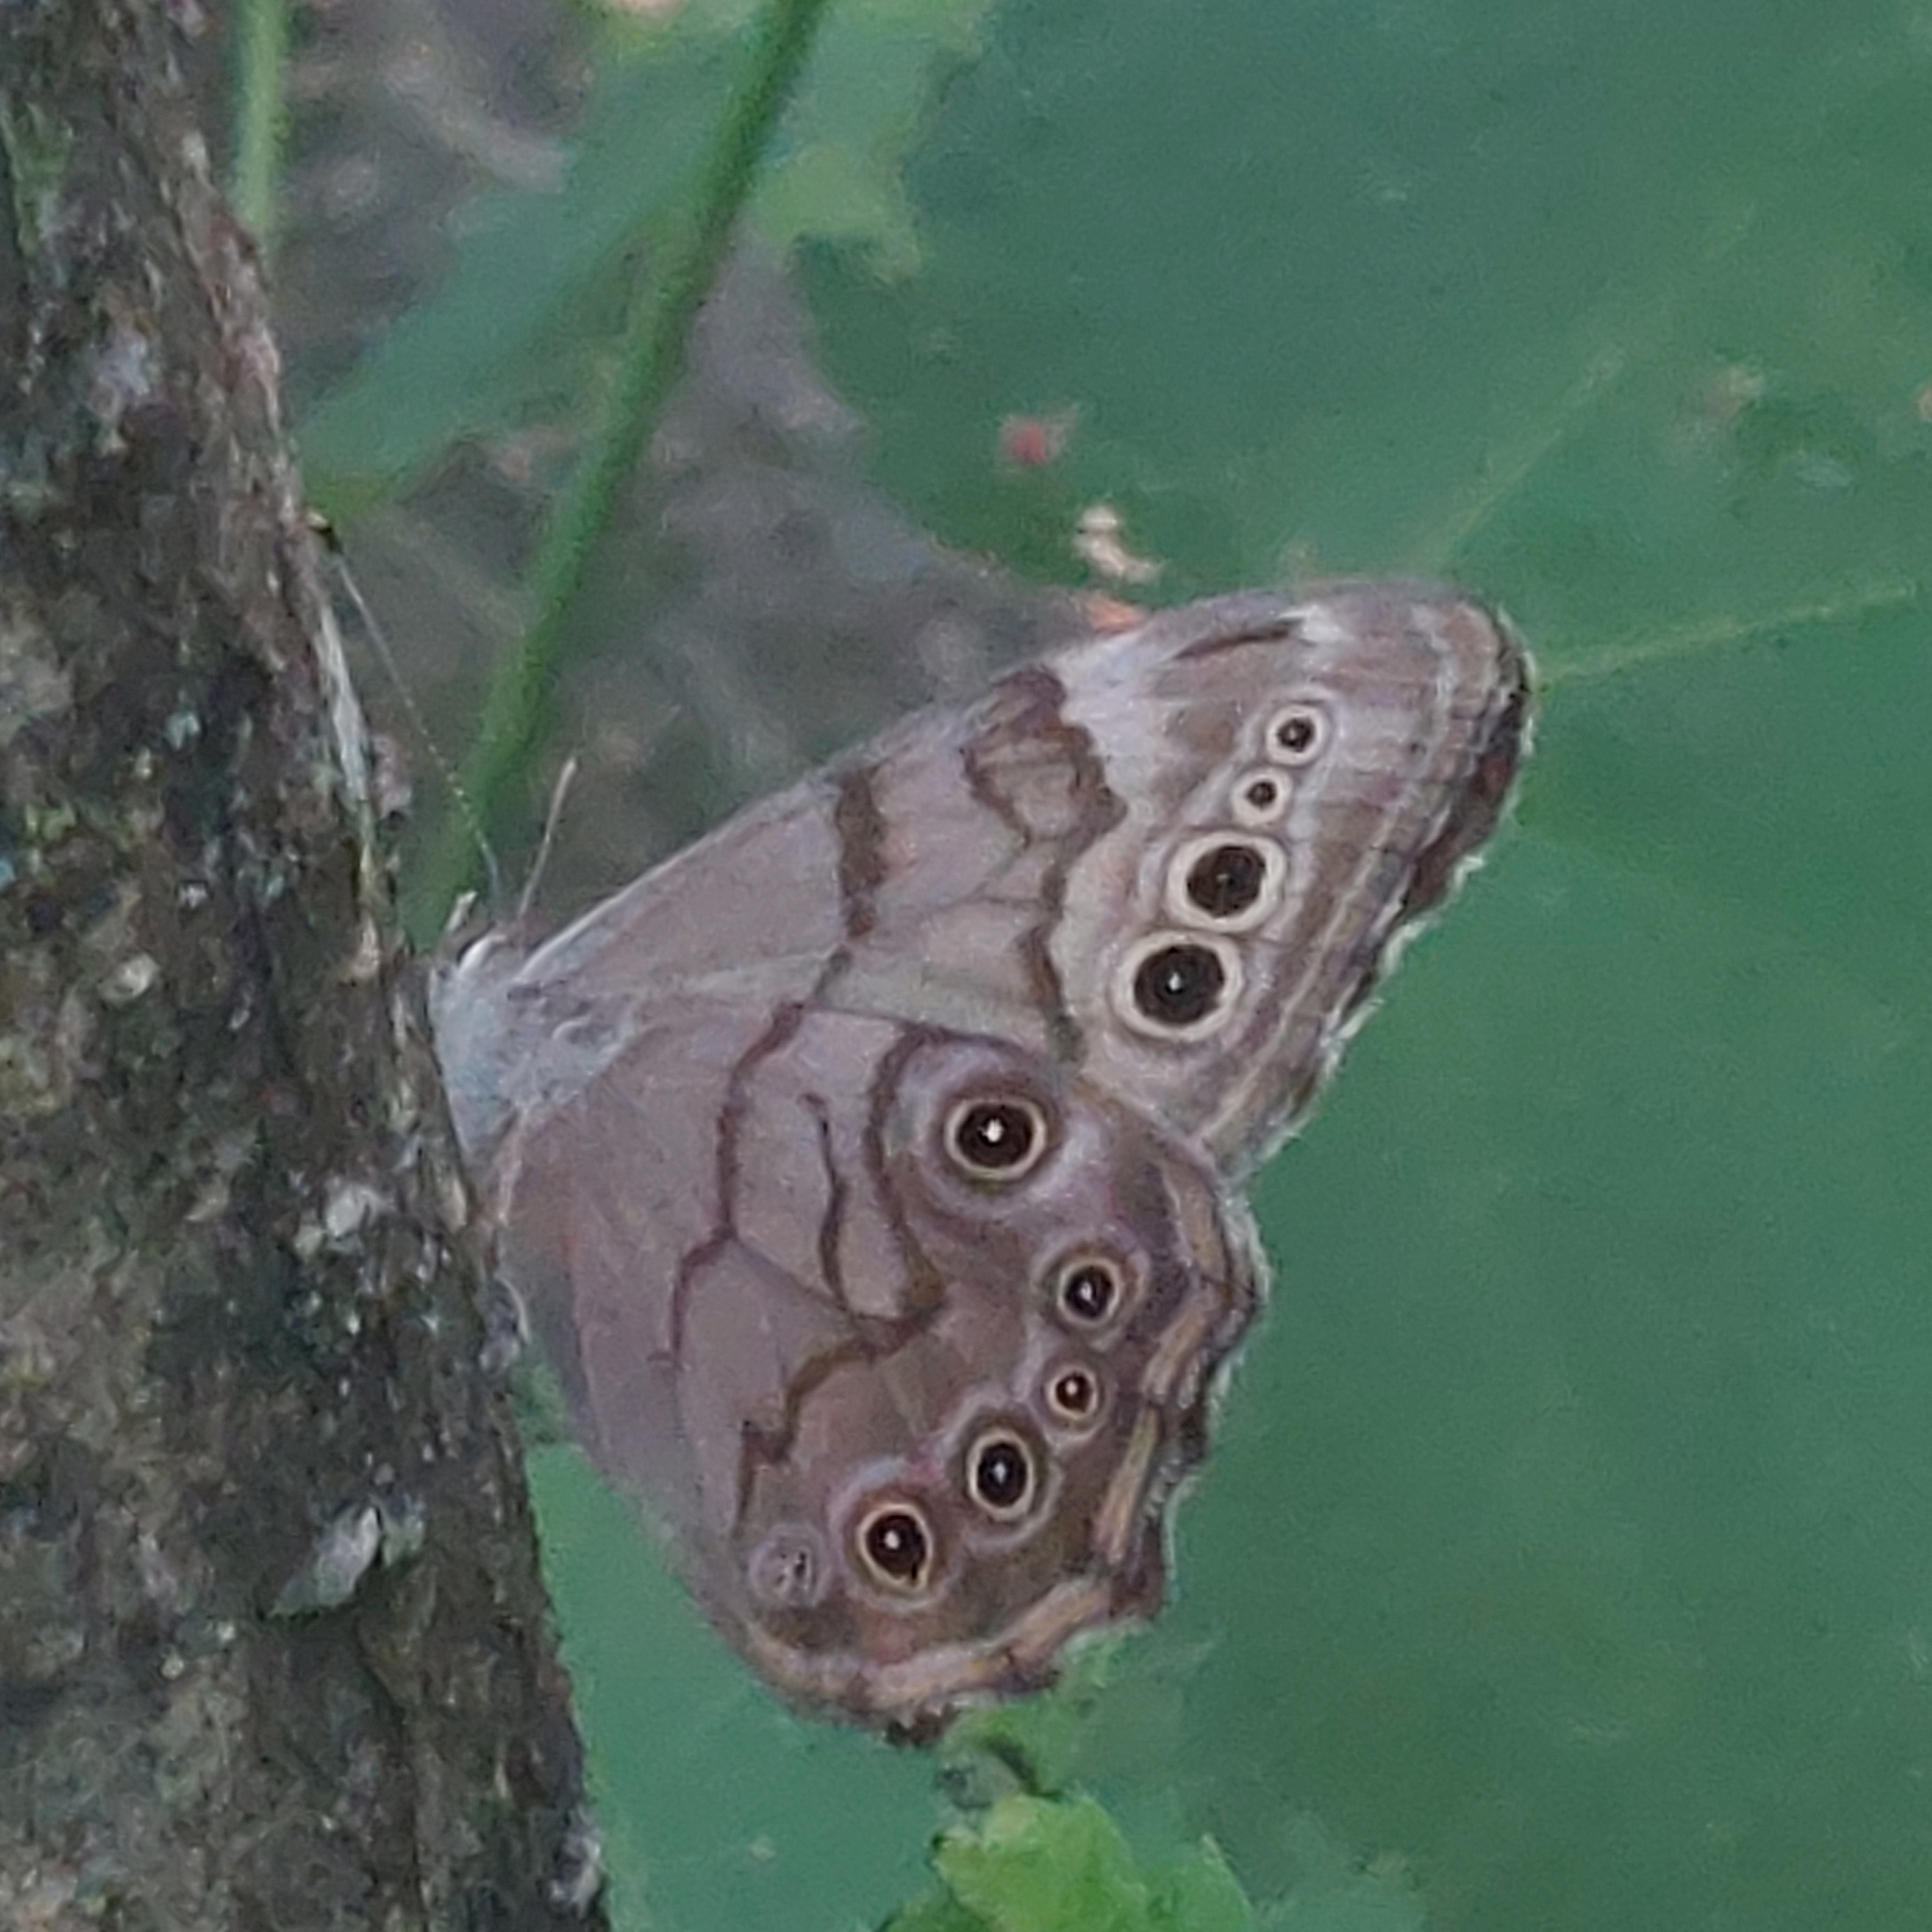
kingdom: Animalia
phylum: Arthropoda
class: Insecta
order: Lepidoptera
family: Nymphalidae
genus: Lethe
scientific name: Lethe anthedon
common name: Northern pearly-eye
